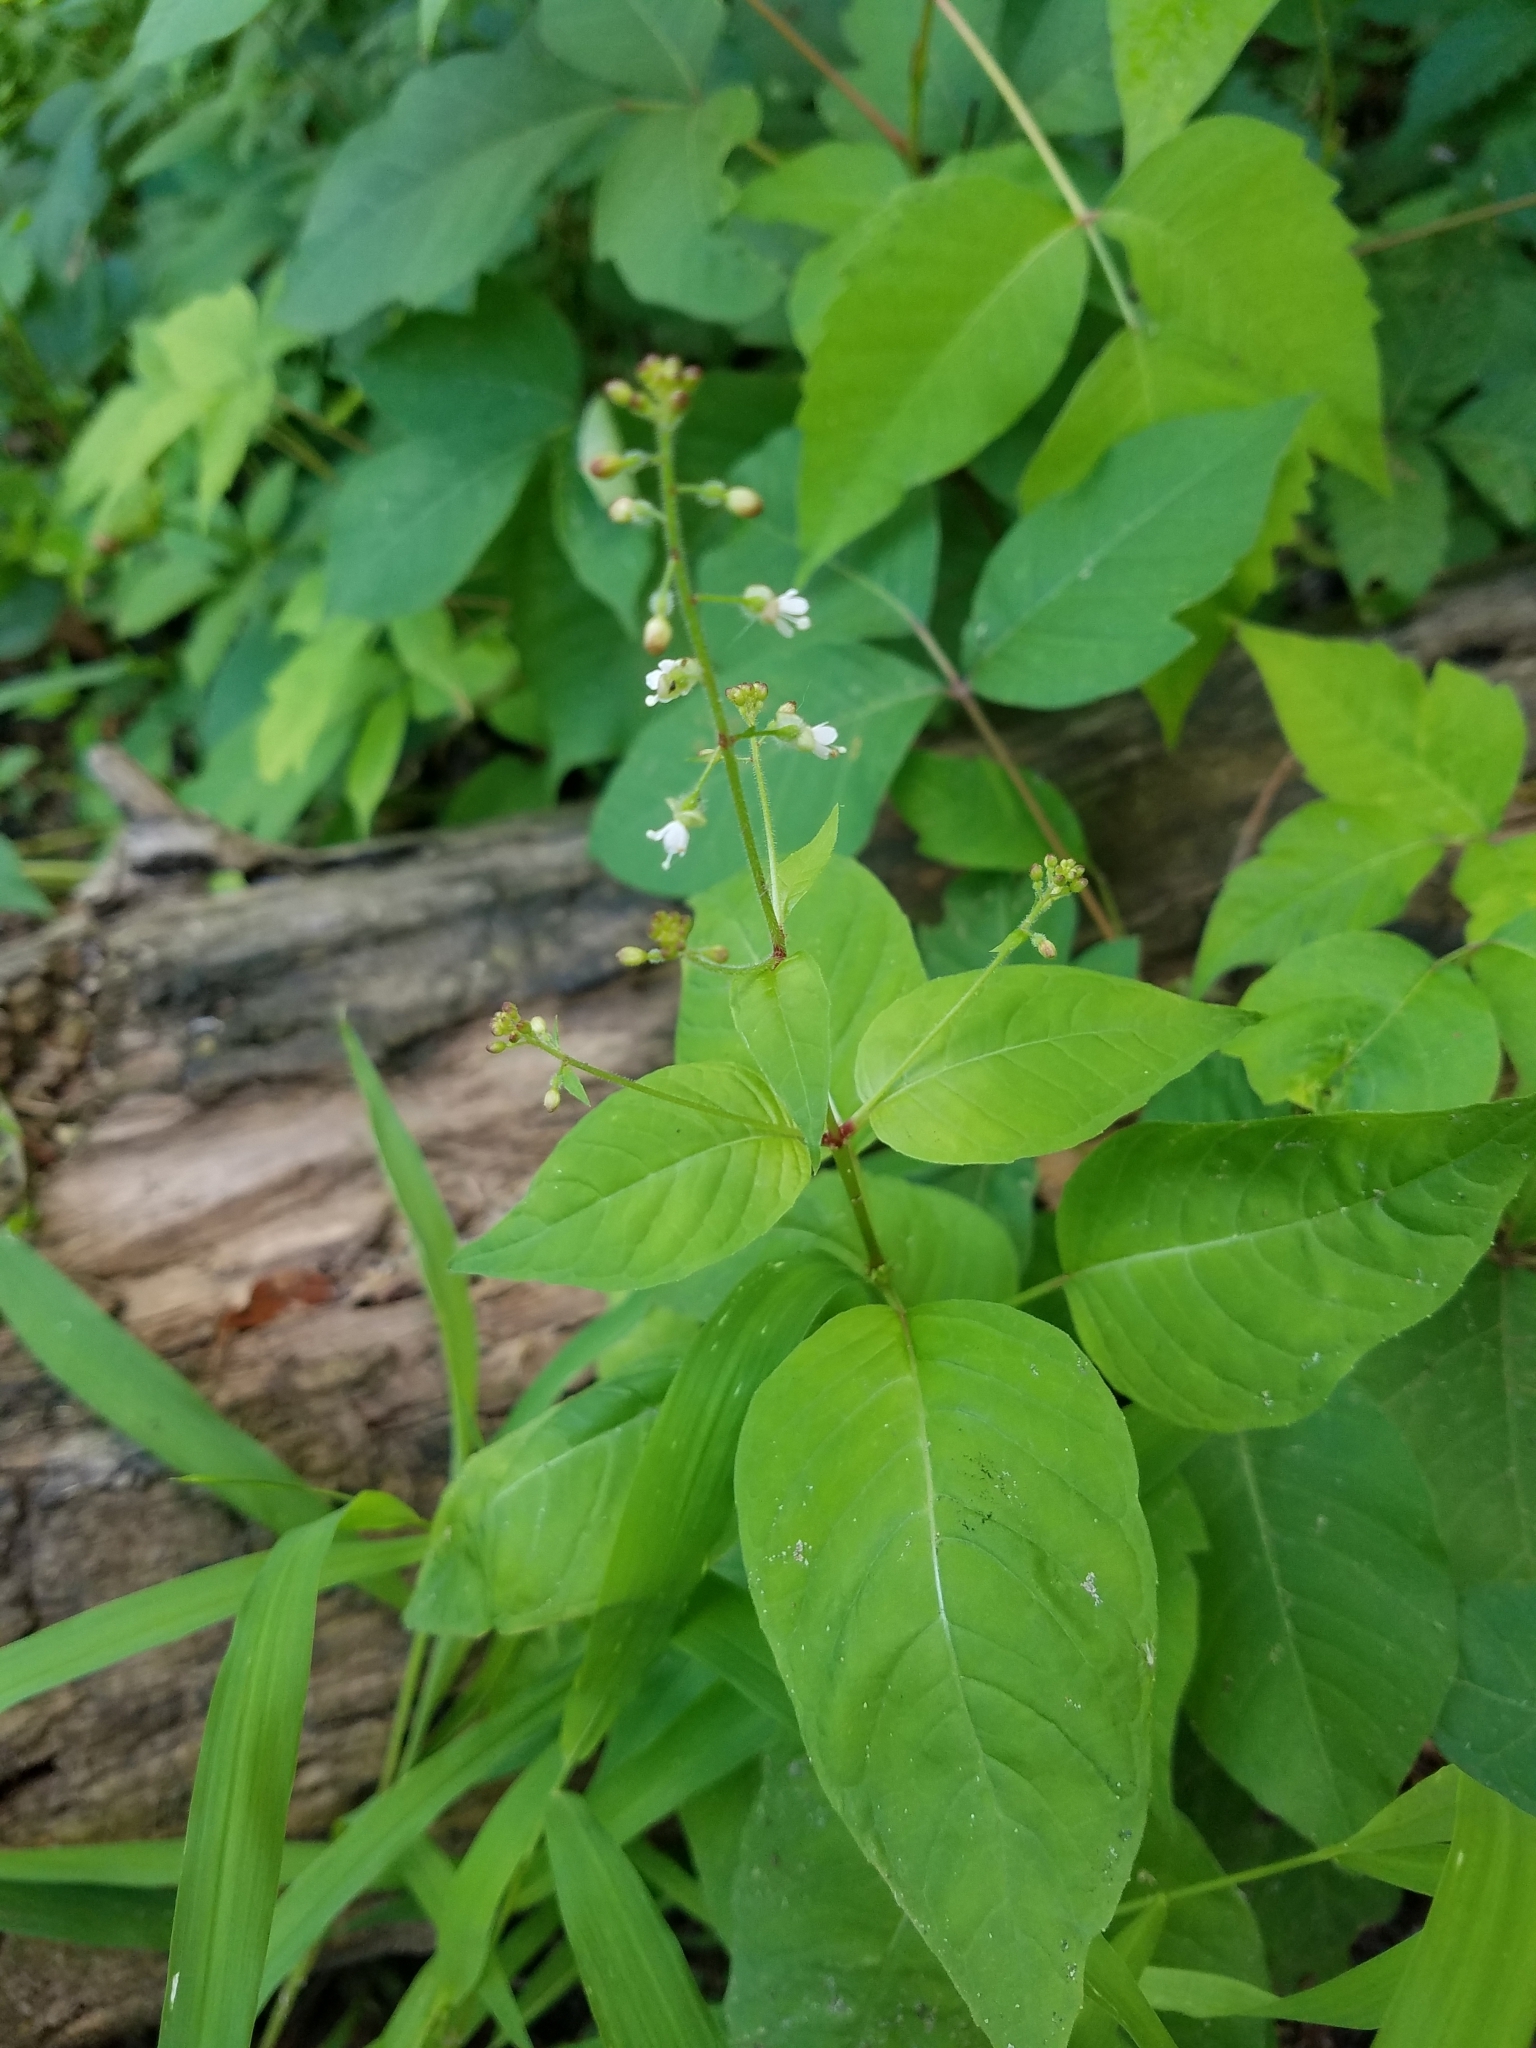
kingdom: Plantae
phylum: Tracheophyta
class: Magnoliopsida
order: Myrtales
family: Onagraceae
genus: Circaea
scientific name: Circaea canadensis
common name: Broad-leaved enchanter's nightshade
